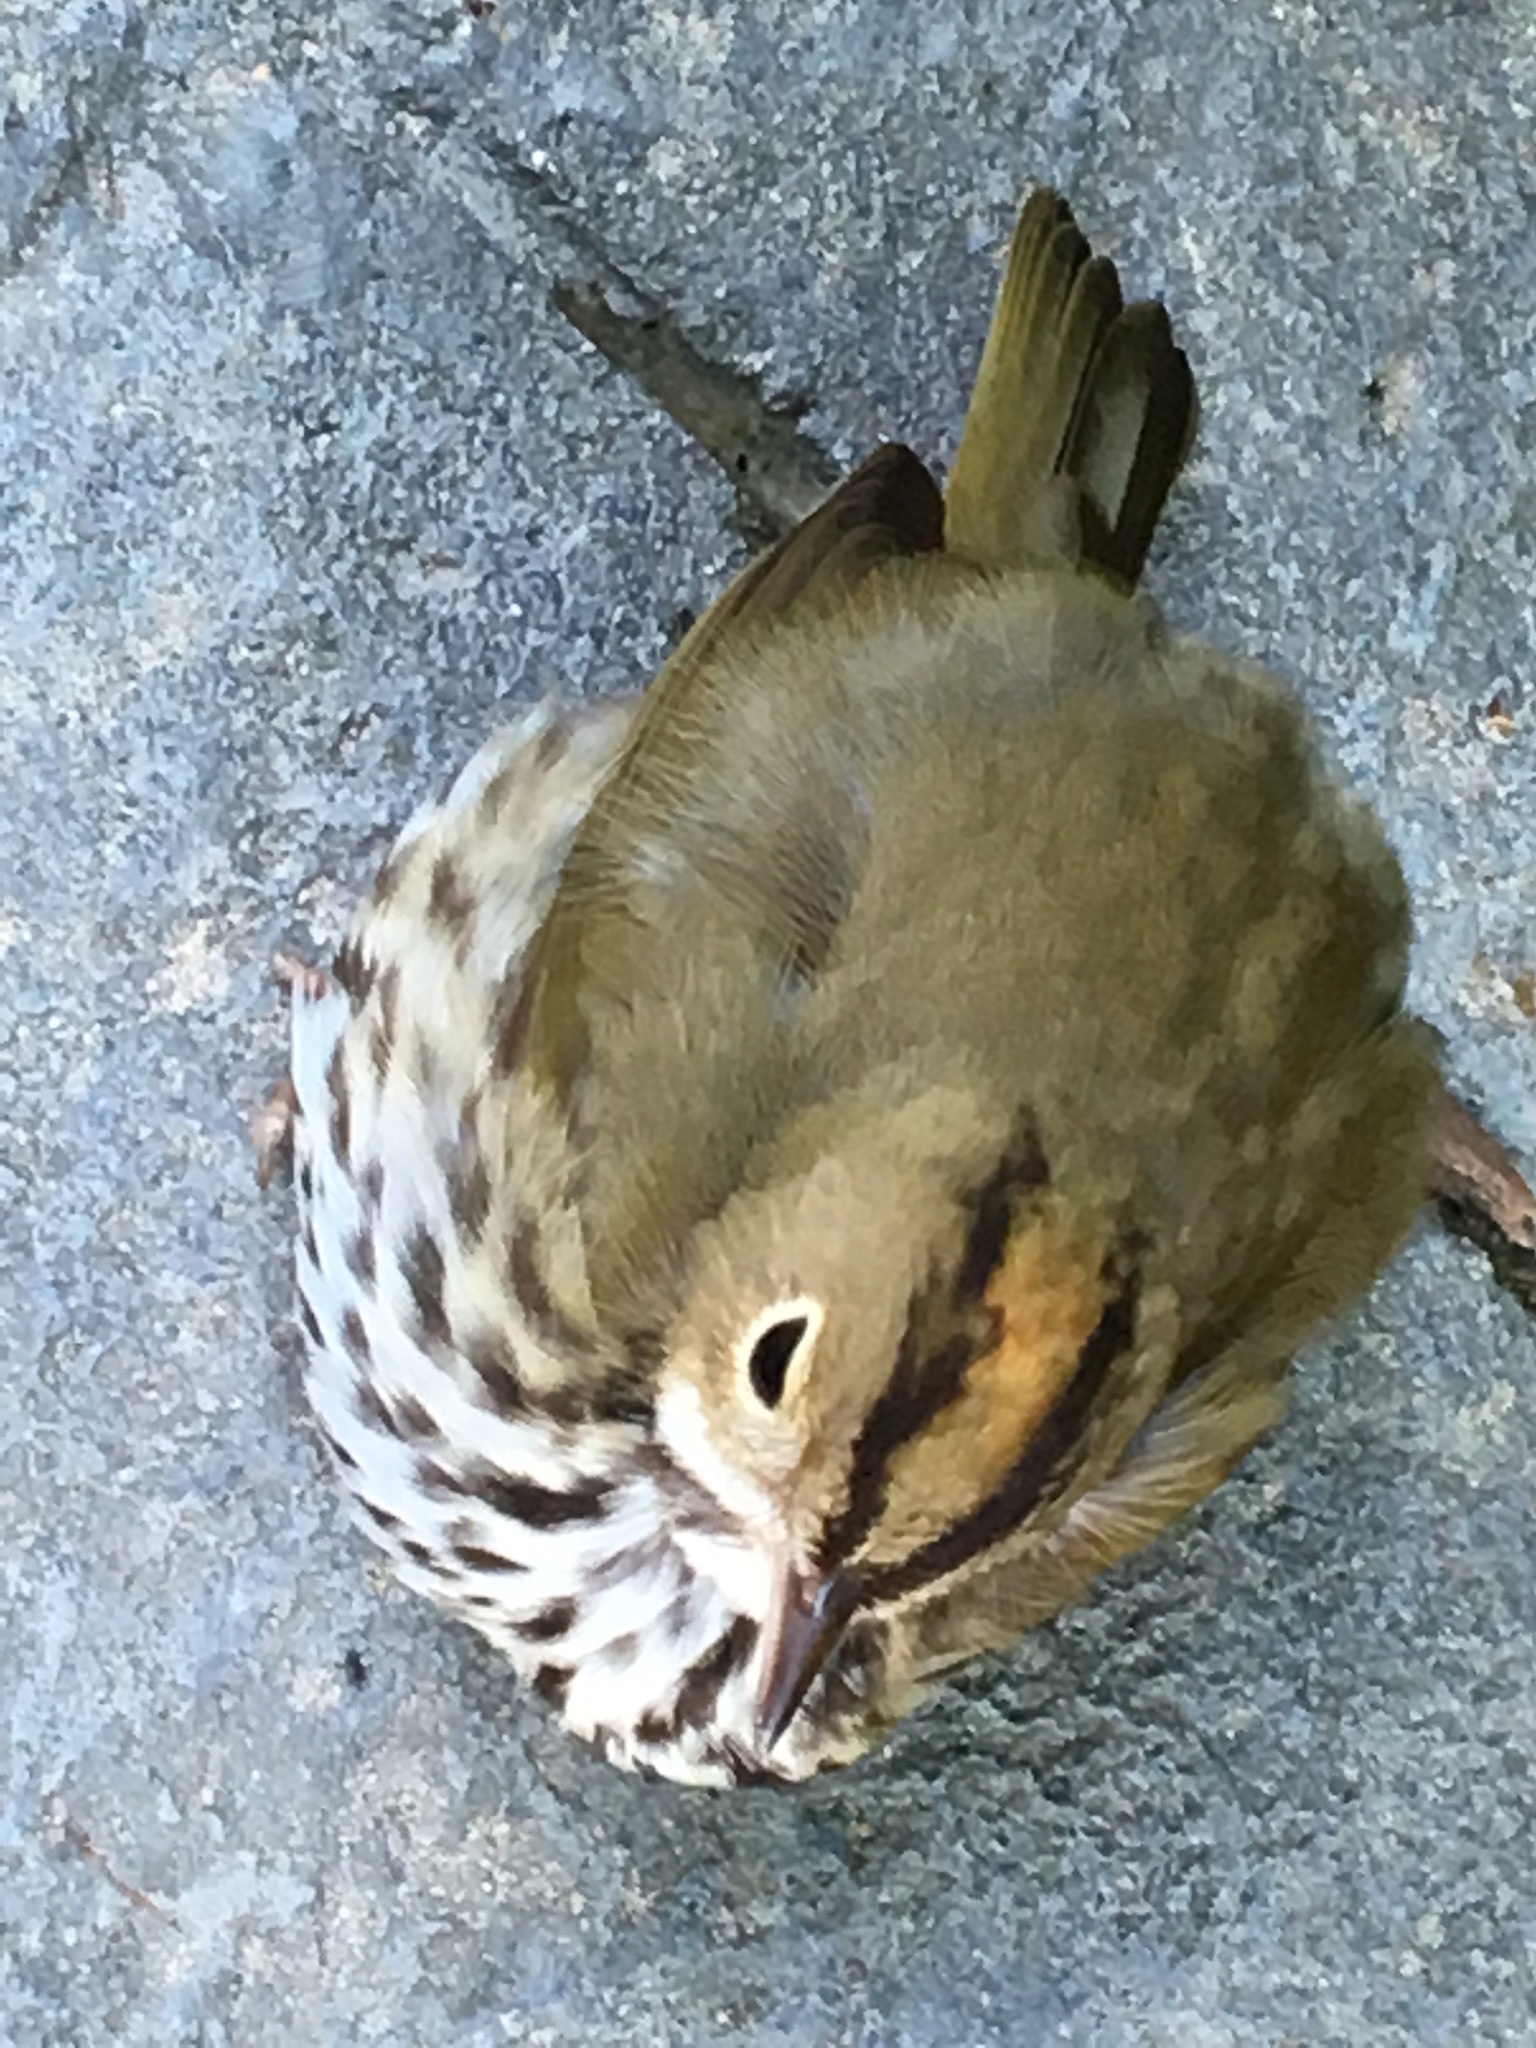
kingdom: Animalia
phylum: Chordata
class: Aves
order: Passeriformes
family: Parulidae
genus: Seiurus
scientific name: Seiurus aurocapilla
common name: Ovenbird
